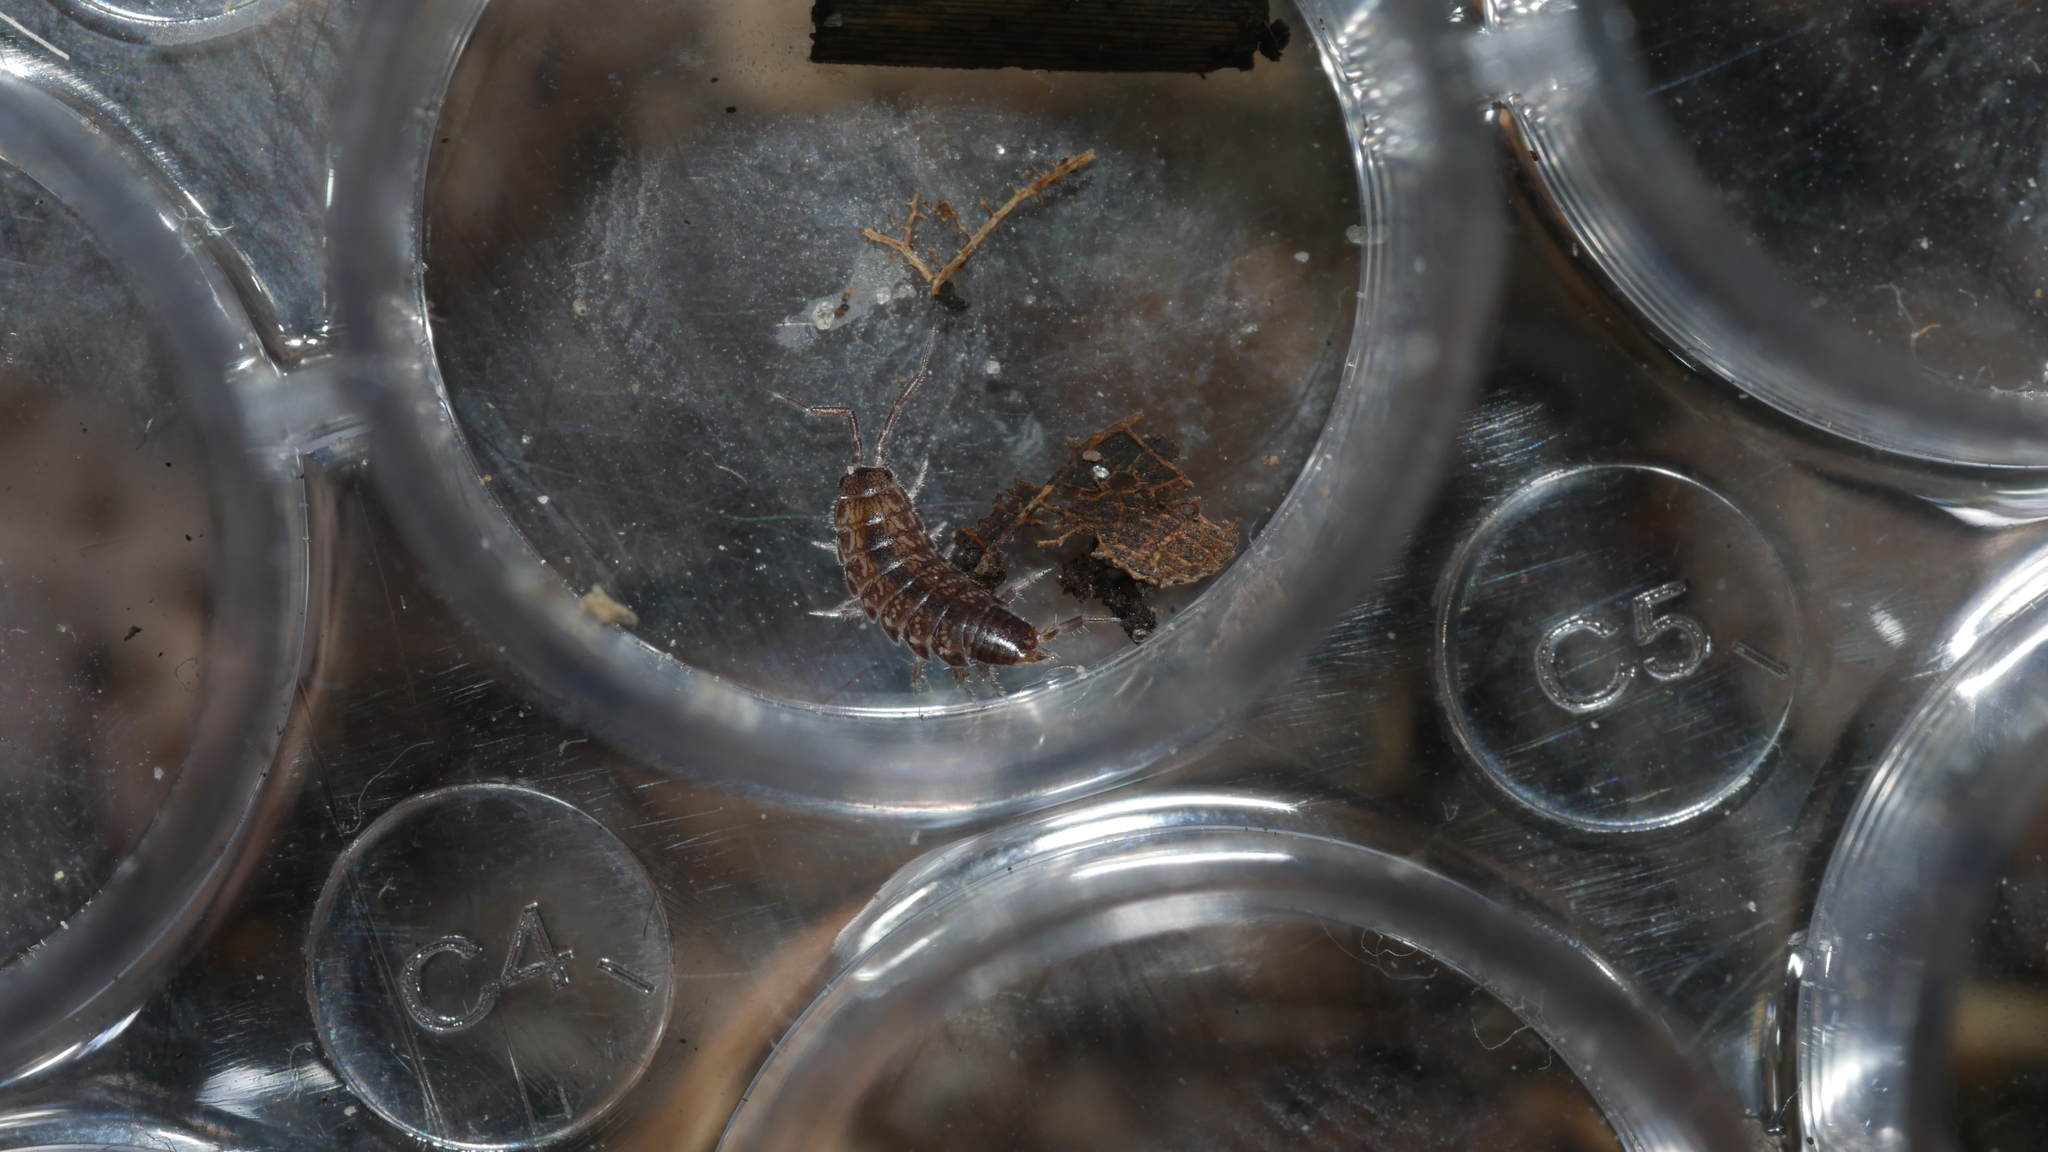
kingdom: Animalia
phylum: Arthropoda
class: Malacostraca
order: Isopoda
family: Philosciidae
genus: Chaetophiloscia
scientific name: Chaetophiloscia sicula
